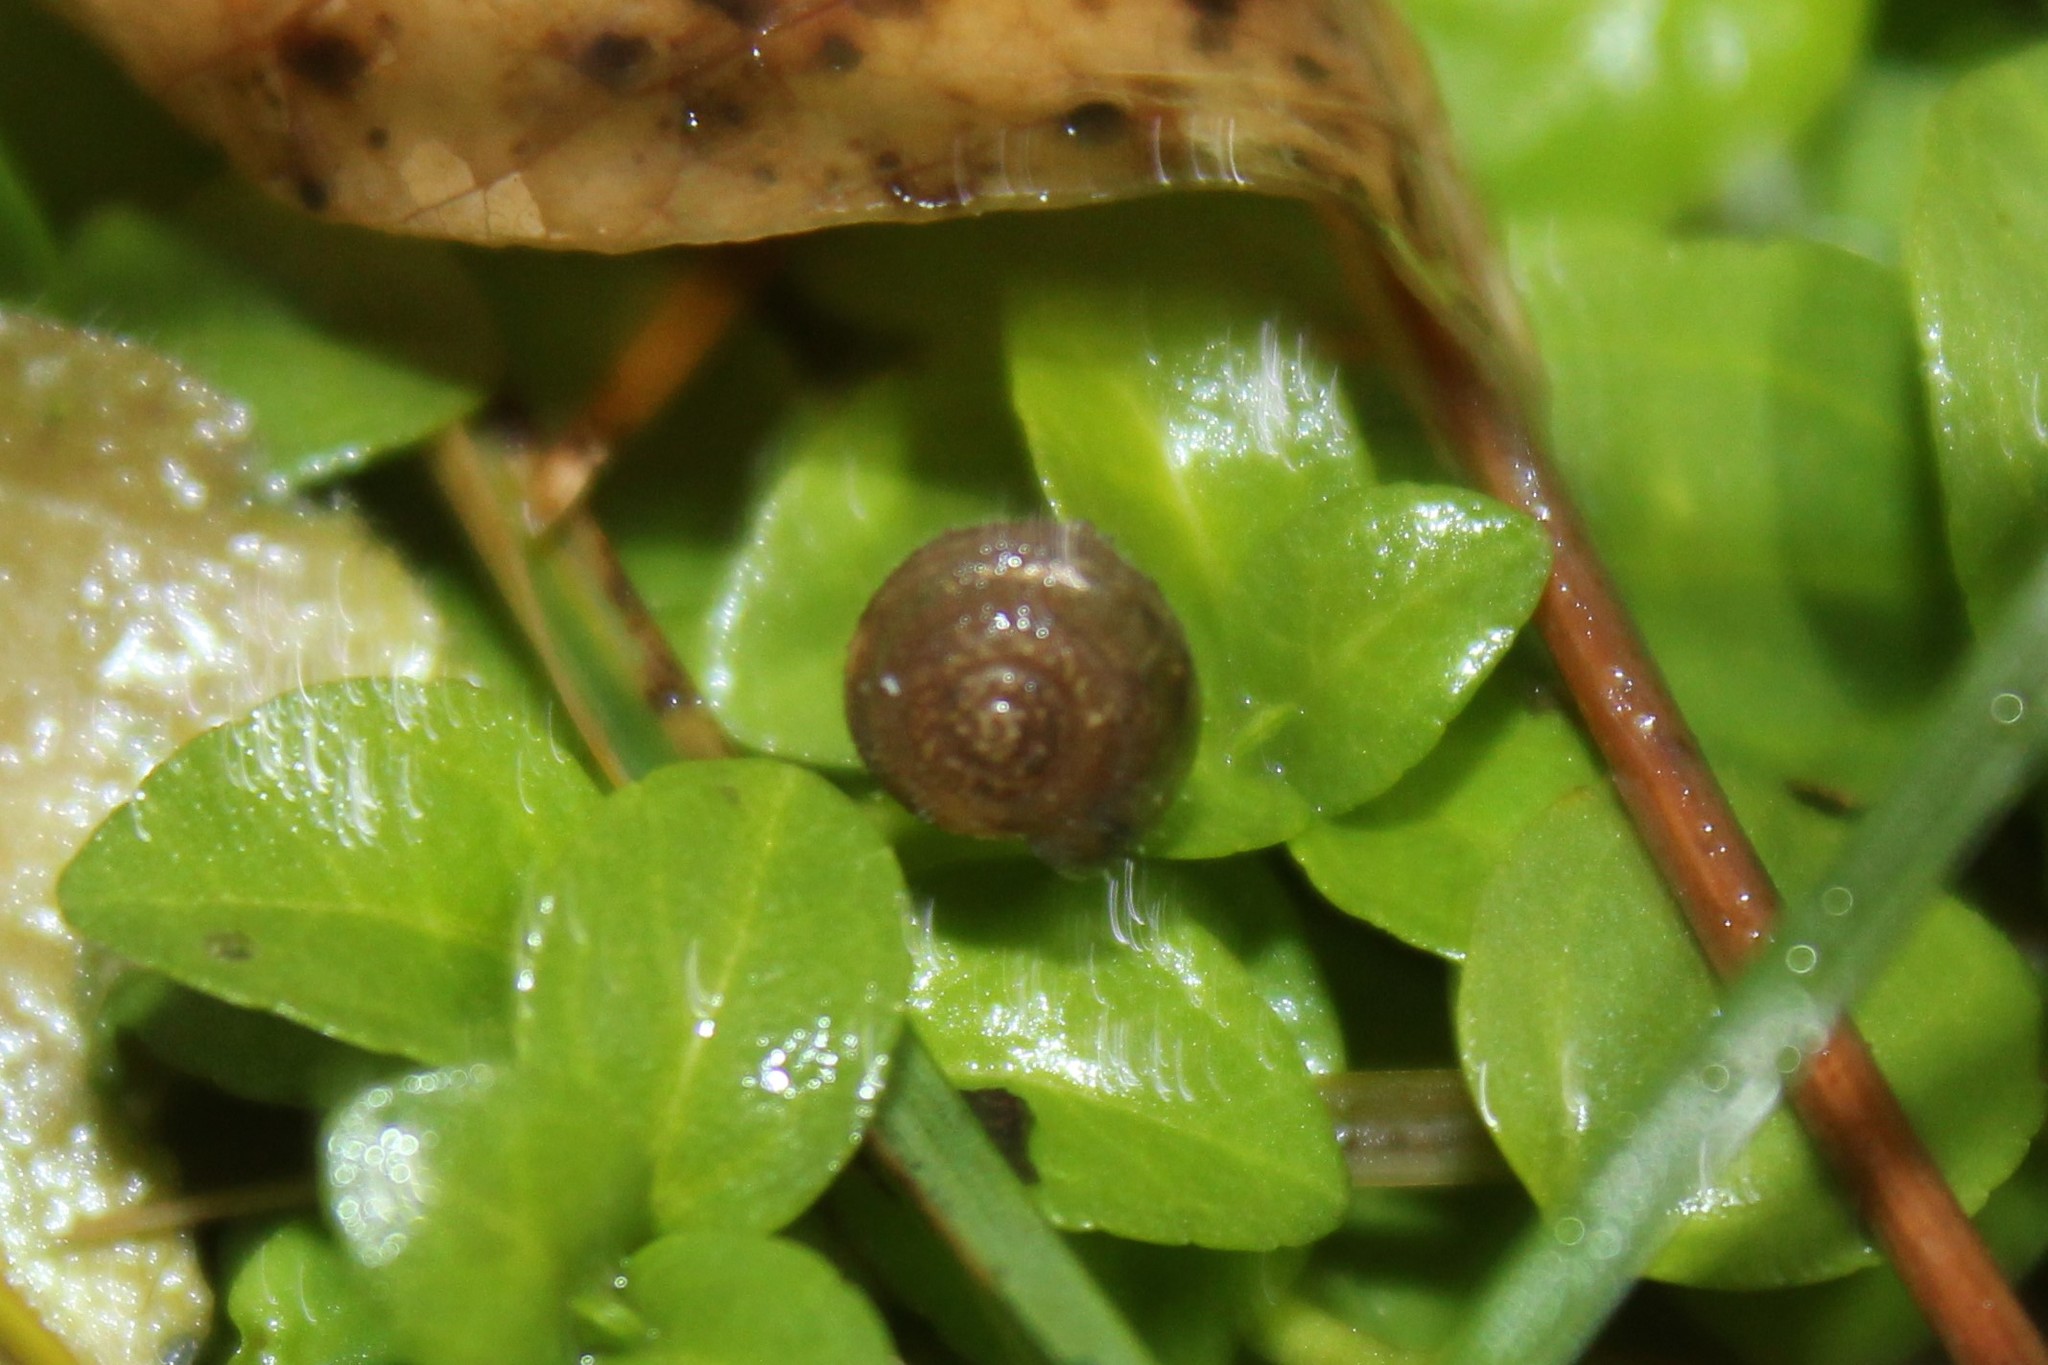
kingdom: Animalia
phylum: Mollusca
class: Gastropoda
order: Stylommatophora
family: Oxychilidae
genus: Oxychilus
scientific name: Oxychilus draparnaudi
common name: Draparnaud's glass snail
